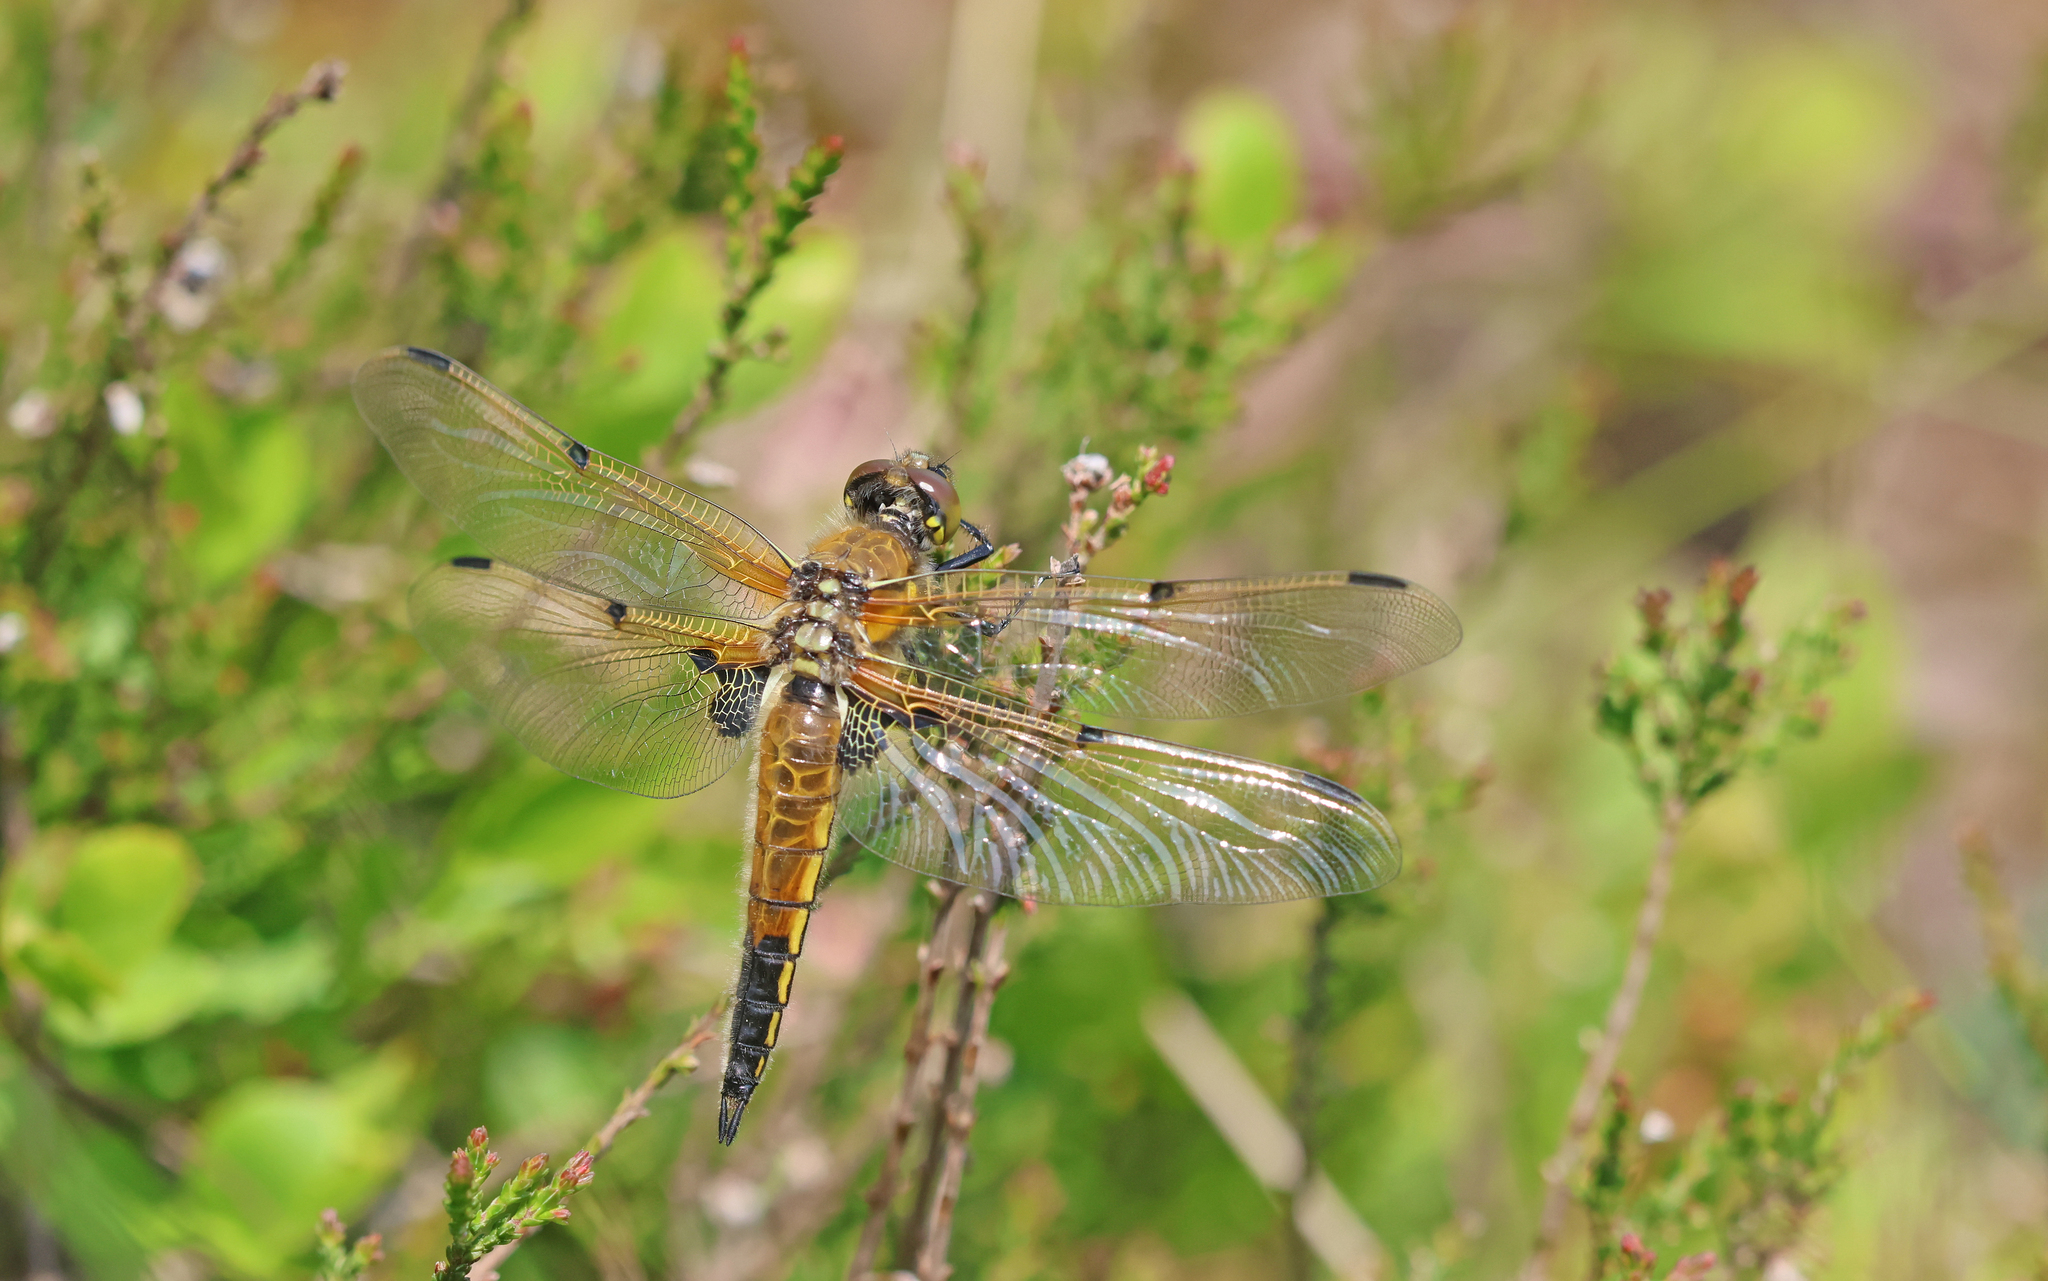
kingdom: Animalia
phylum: Arthropoda
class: Insecta
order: Odonata
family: Libellulidae
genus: Libellula
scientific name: Libellula quadrimaculata
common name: Four-spotted chaser
